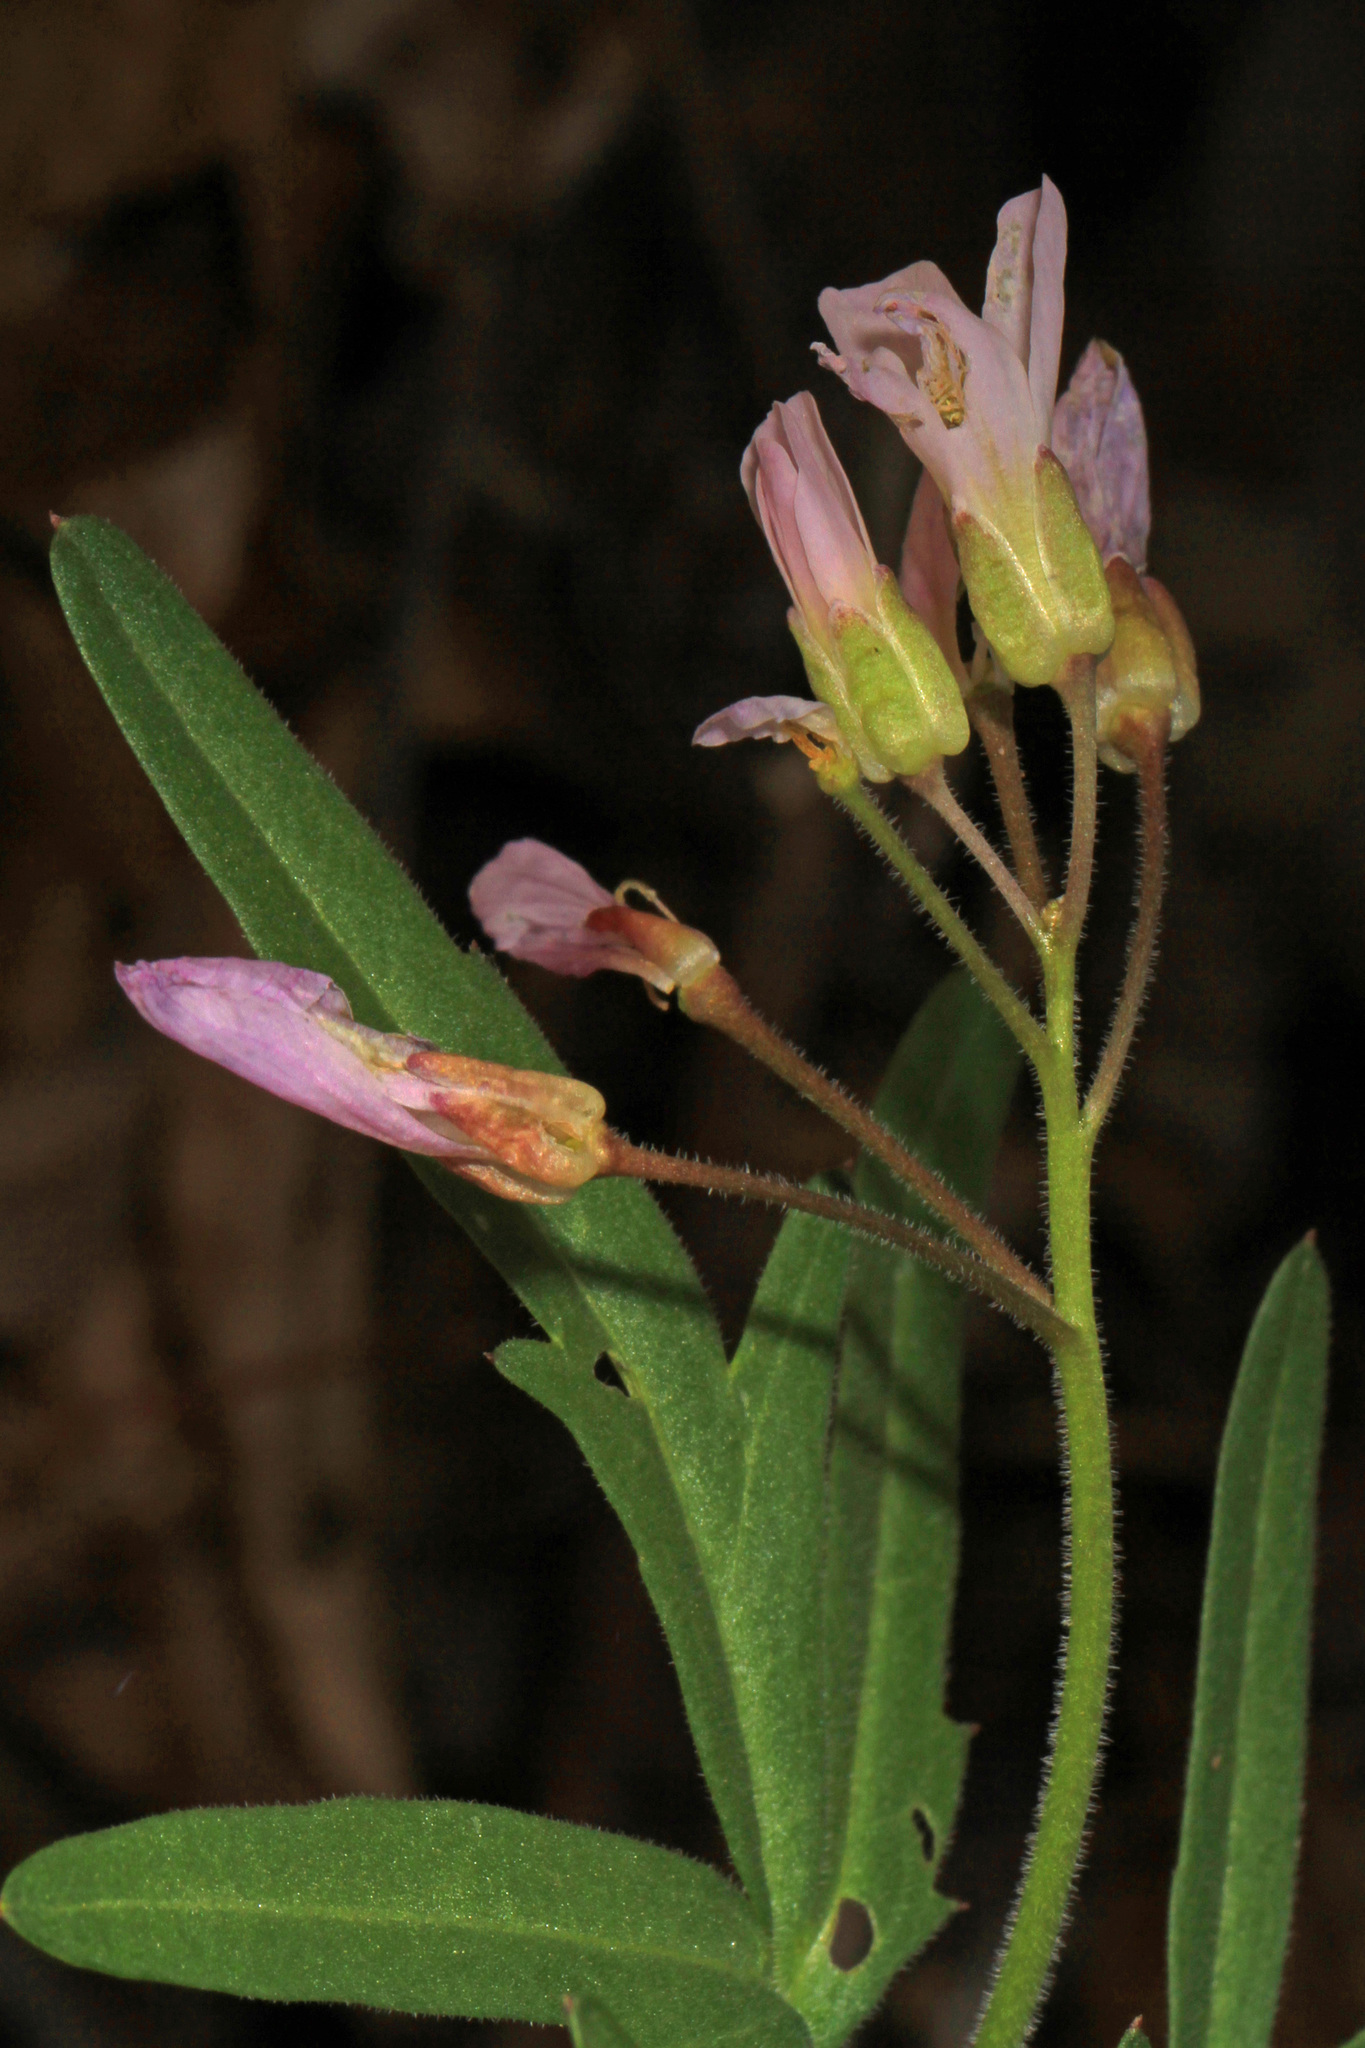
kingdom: Plantae
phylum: Tracheophyta
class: Magnoliopsida
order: Brassicales
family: Brassicaceae
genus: Cardamine
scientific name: Cardamine concatenata
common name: Cut-leaf toothcup
